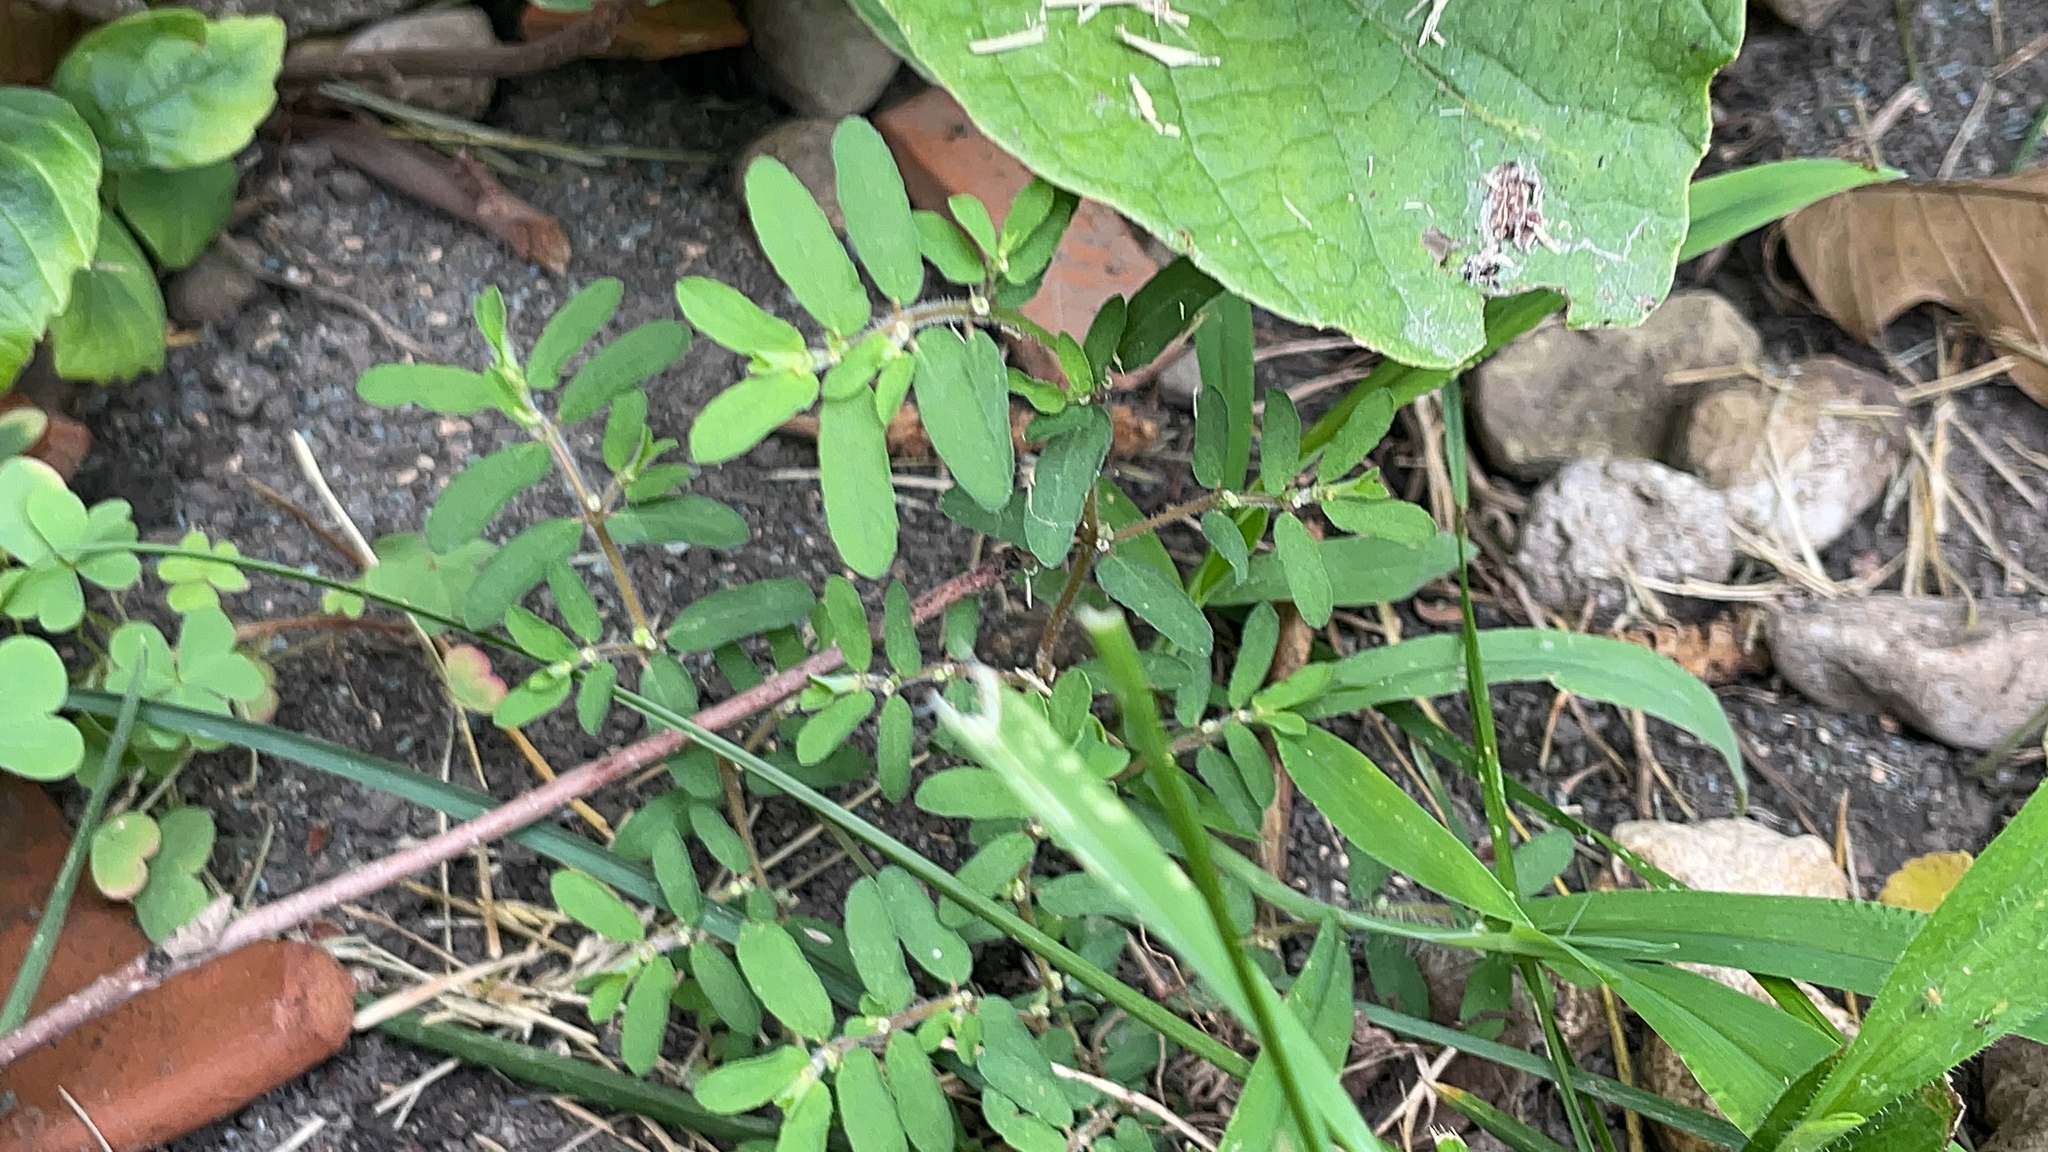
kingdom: Plantae
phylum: Tracheophyta
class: Magnoliopsida
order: Malpighiales
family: Euphorbiaceae
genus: Euphorbia
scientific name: Euphorbia maculata
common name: Spotted spurge
